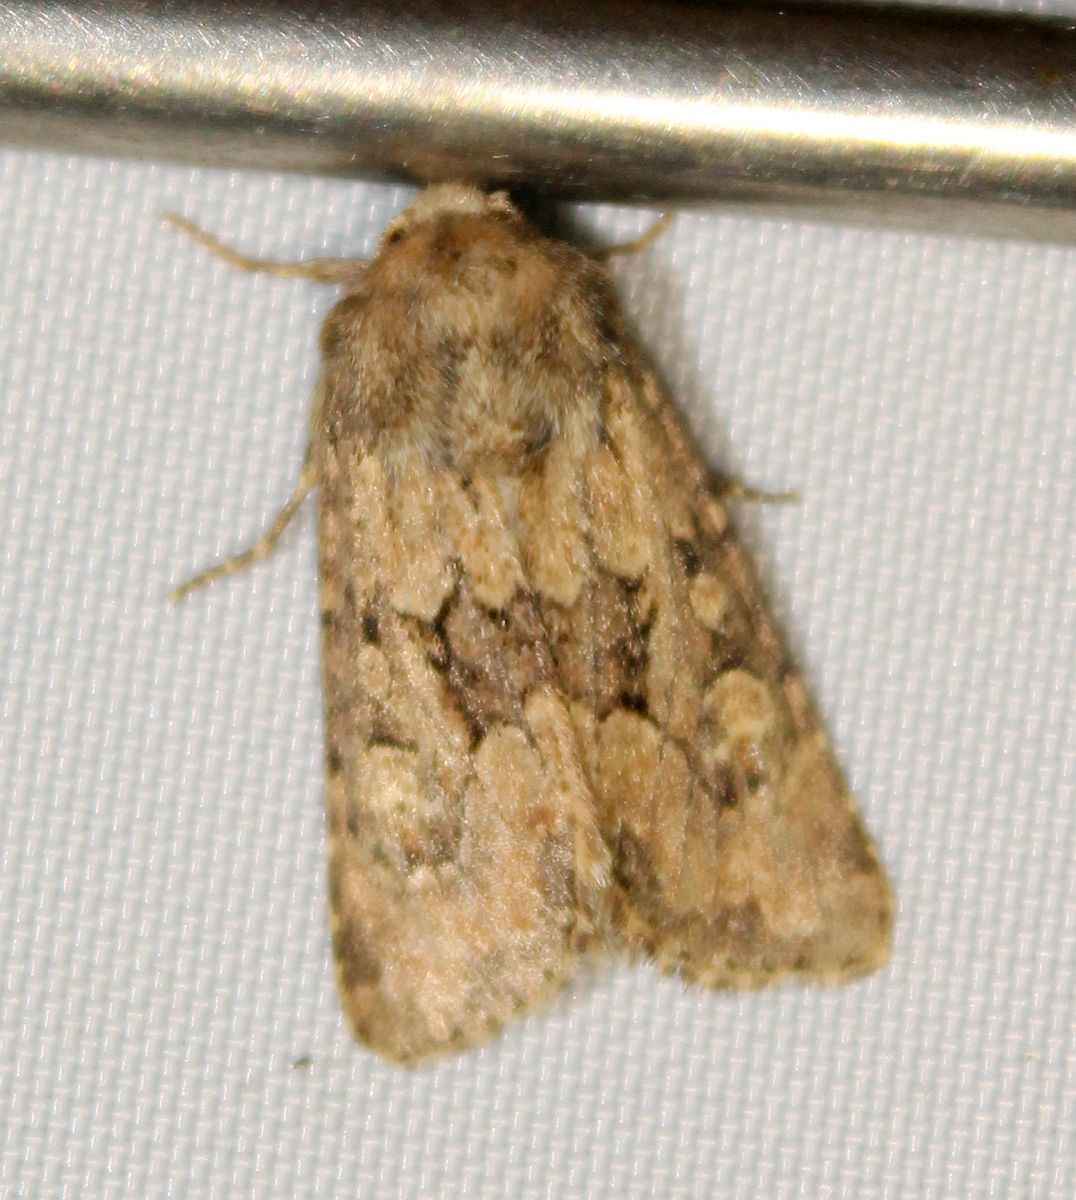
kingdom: Animalia
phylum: Arthropoda
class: Insecta
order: Lepidoptera
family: Noctuidae
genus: Luperina
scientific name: Luperina testacea
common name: Flounced rustic
